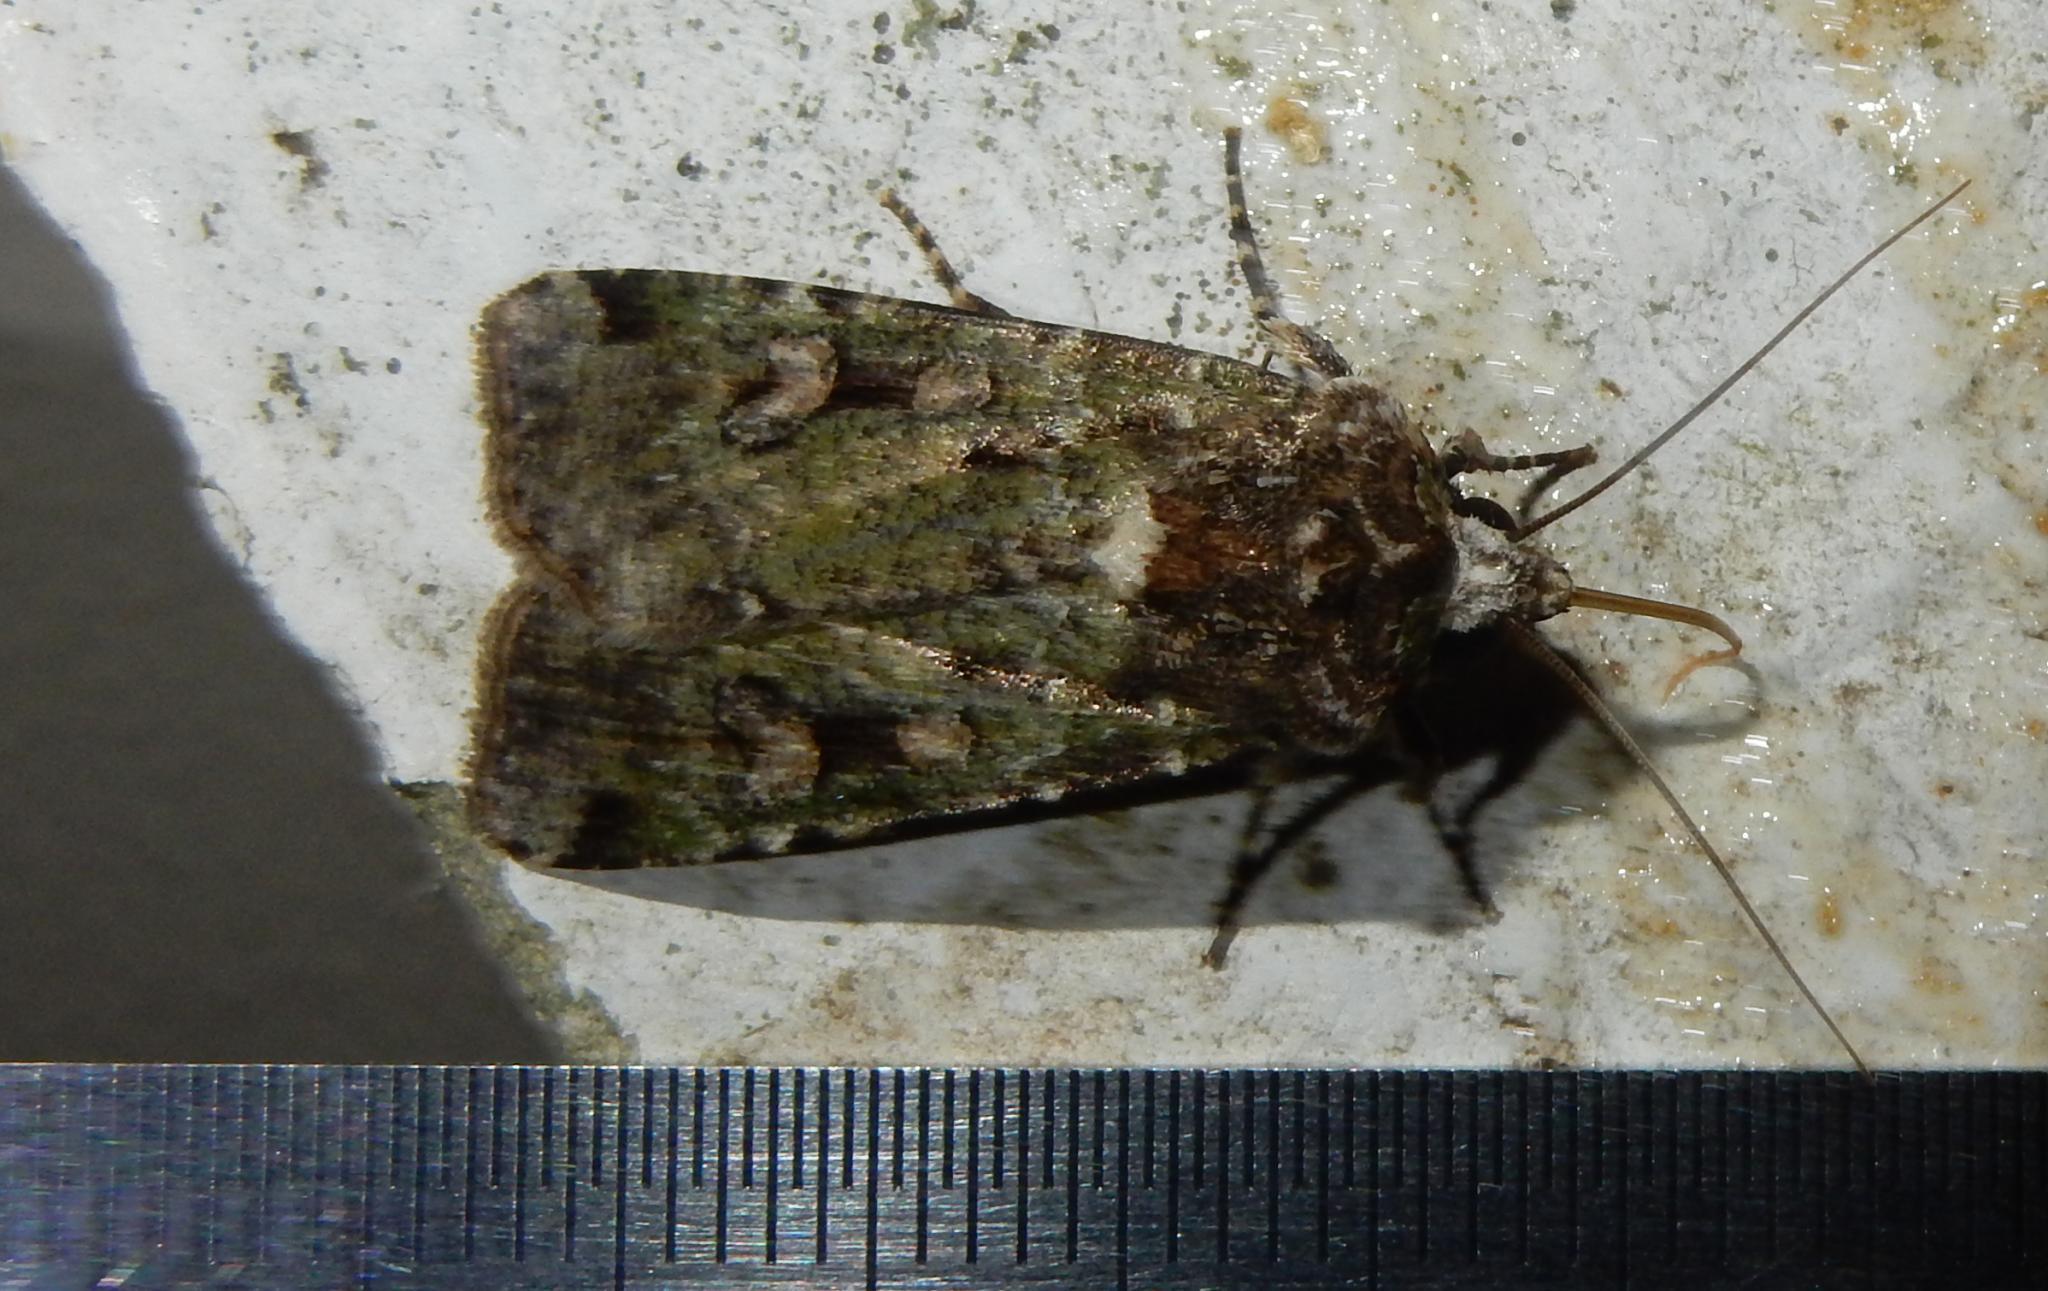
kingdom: Animalia
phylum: Arthropoda
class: Insecta
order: Lepidoptera
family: Noctuidae
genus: Mentaxya
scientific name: Mentaxya ignicollis
